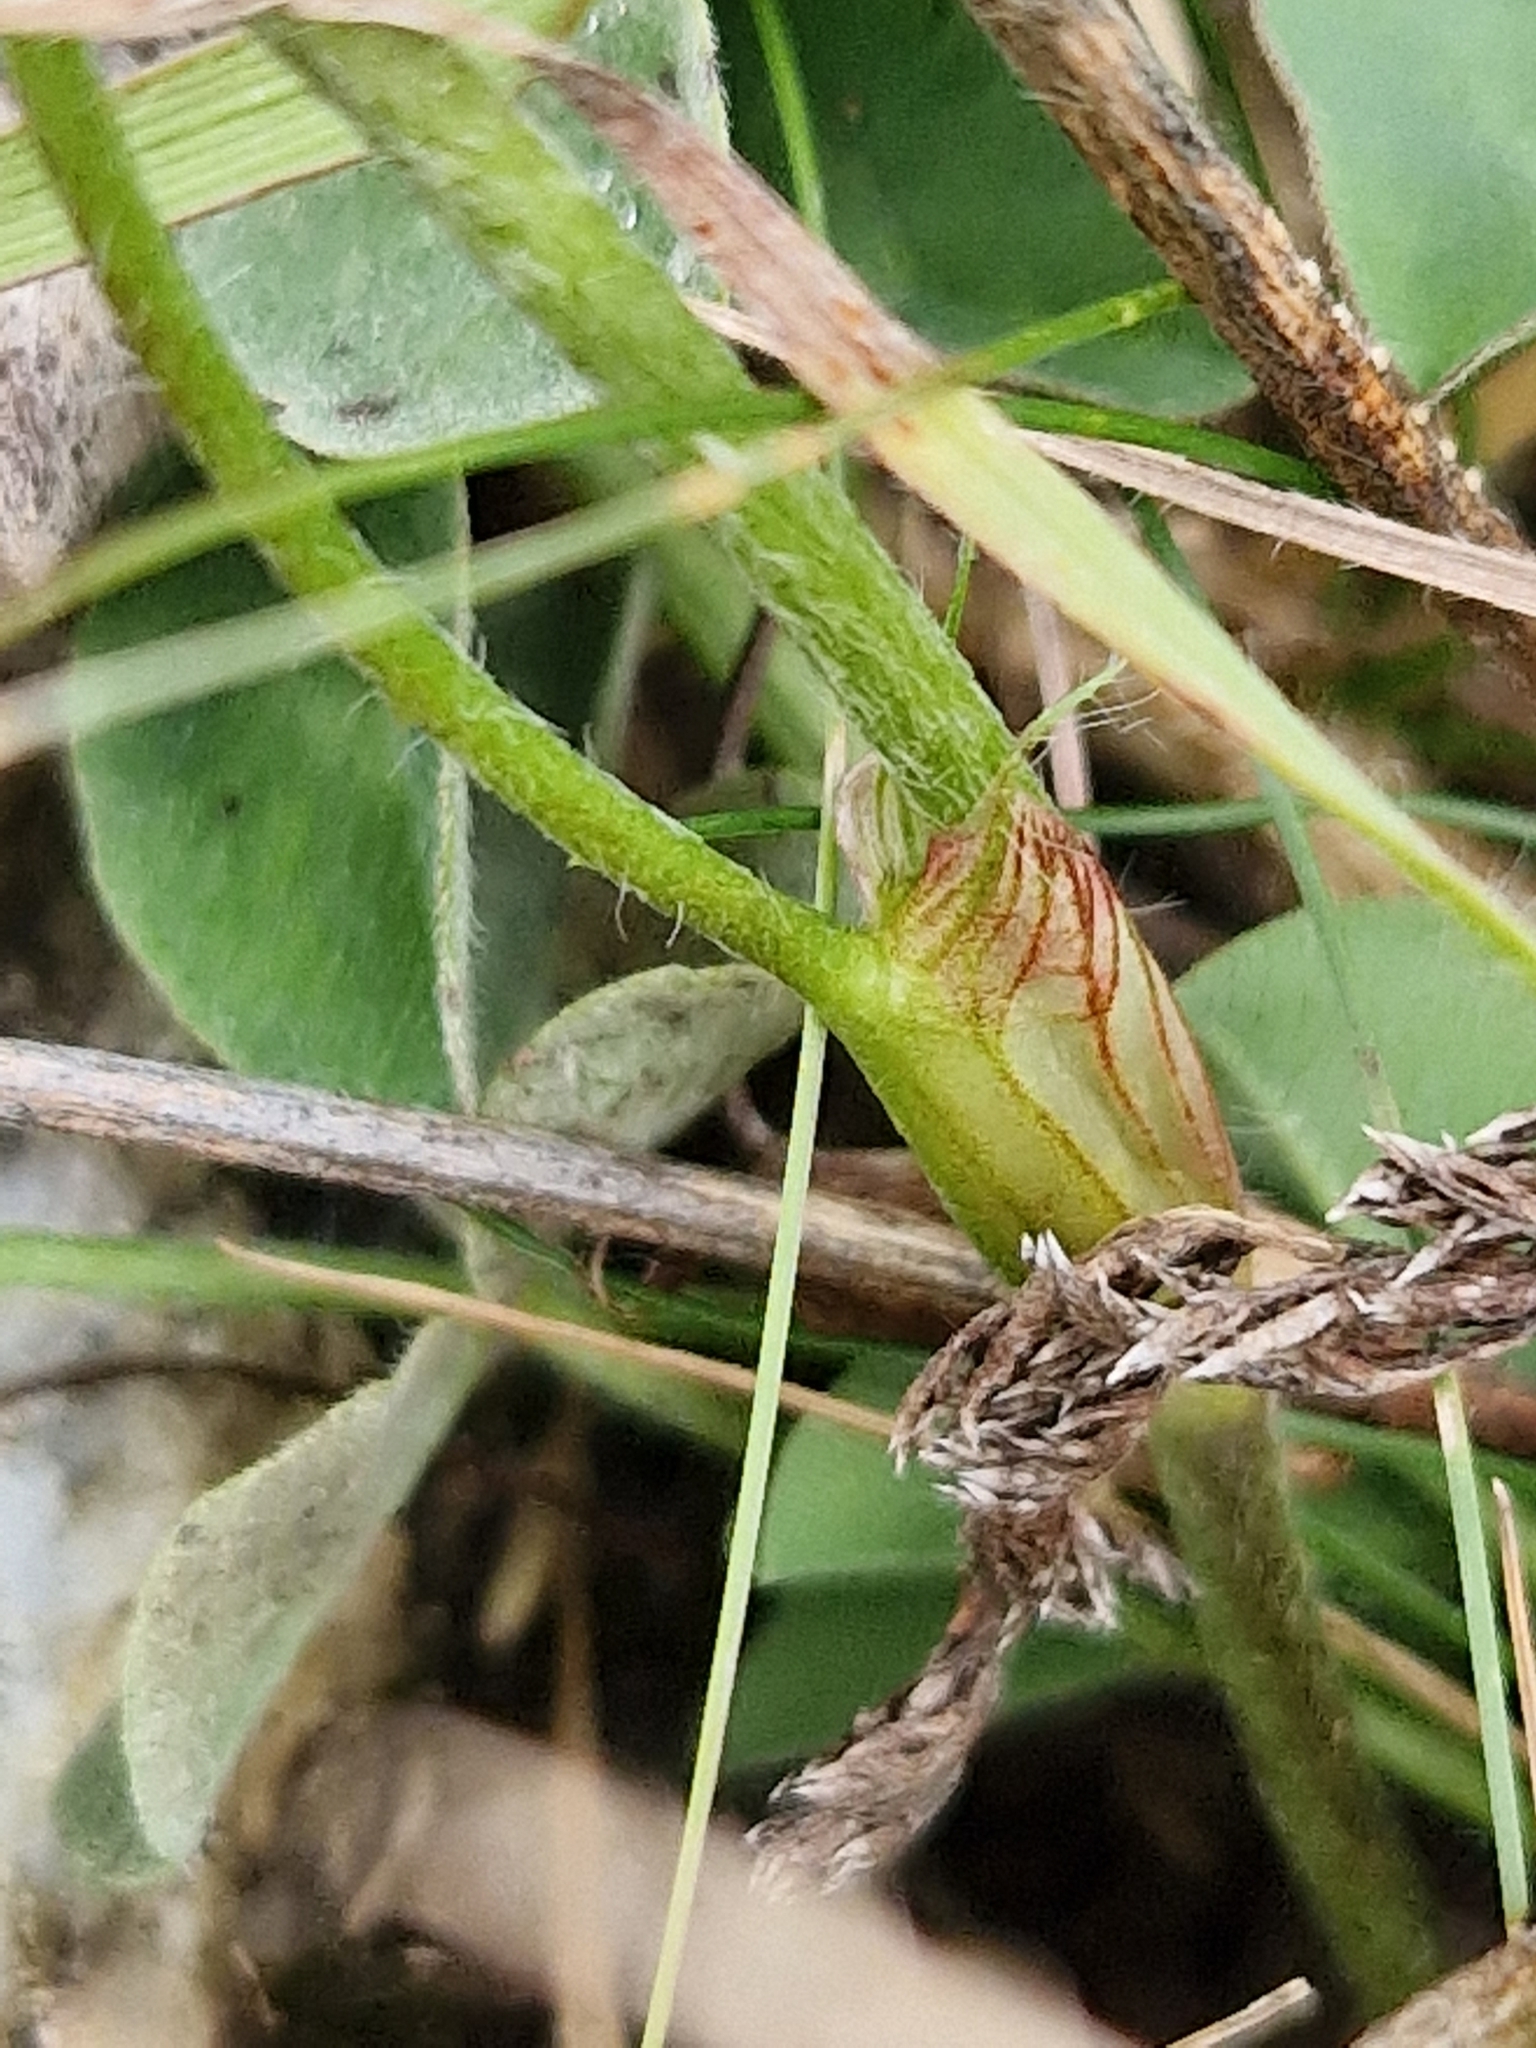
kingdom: Plantae
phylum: Tracheophyta
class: Magnoliopsida
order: Fabales
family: Fabaceae
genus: Trifolium
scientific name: Trifolium pratense
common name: Red clover
